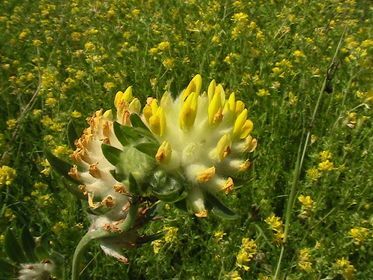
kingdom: Plantae
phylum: Tracheophyta
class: Magnoliopsida
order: Fabales
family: Fabaceae
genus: Anthyllis
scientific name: Anthyllis vulneraria
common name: Kidney vetch
